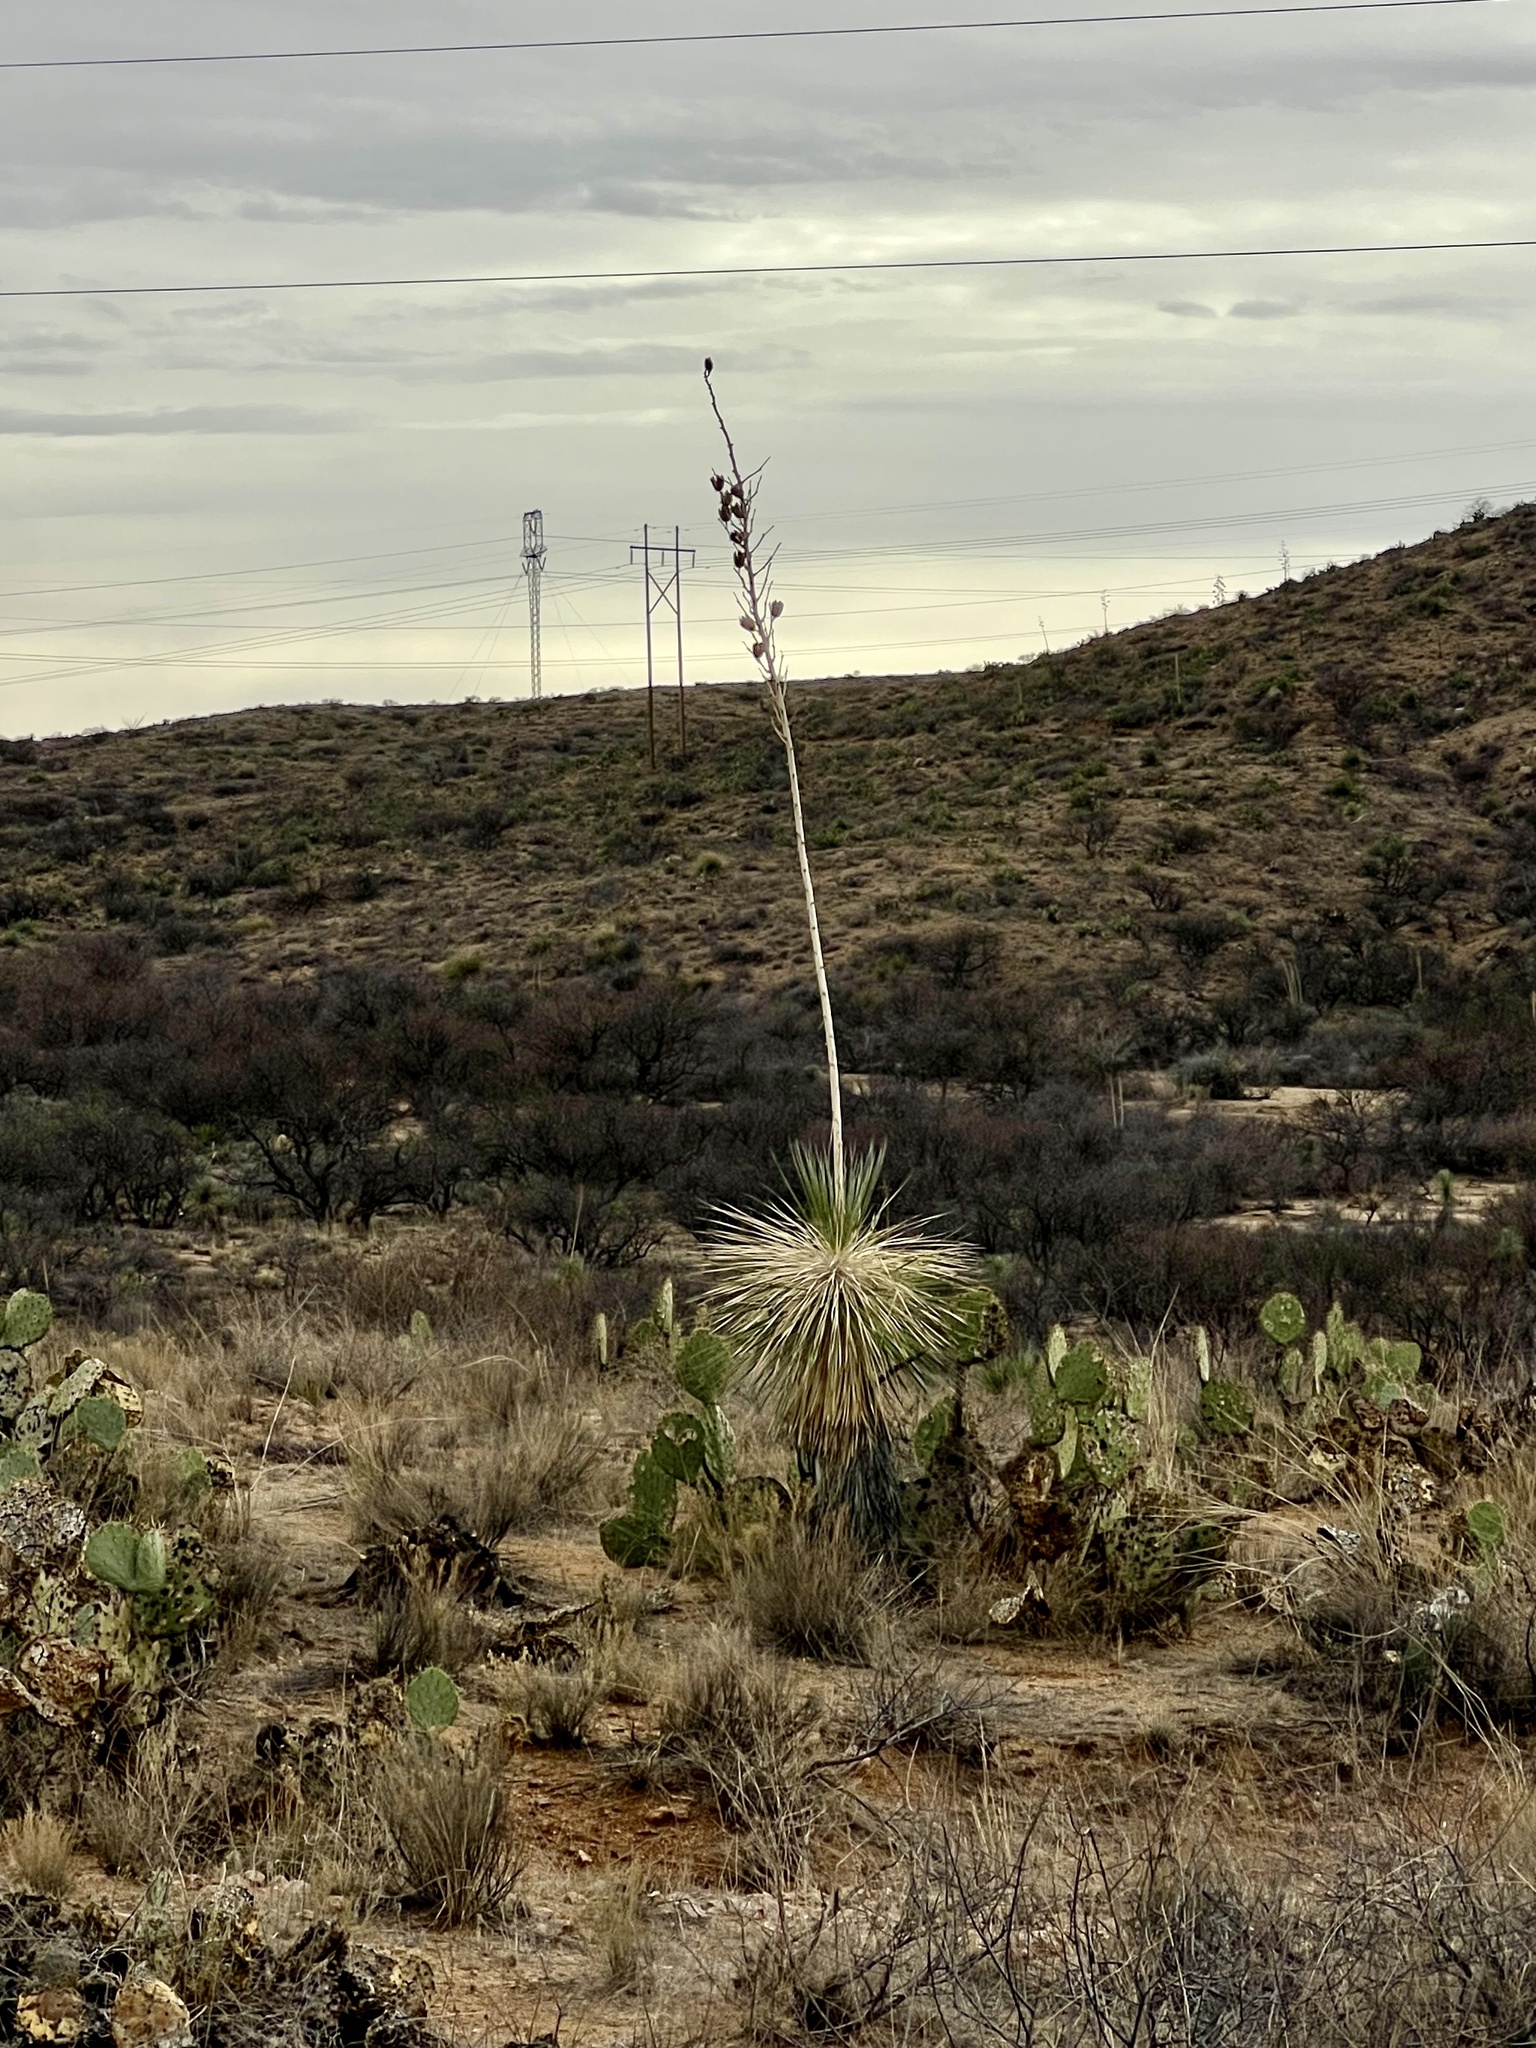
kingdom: Plantae
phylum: Tracheophyta
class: Liliopsida
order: Asparagales
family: Asparagaceae
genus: Yucca
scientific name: Yucca elata
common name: Palmella
